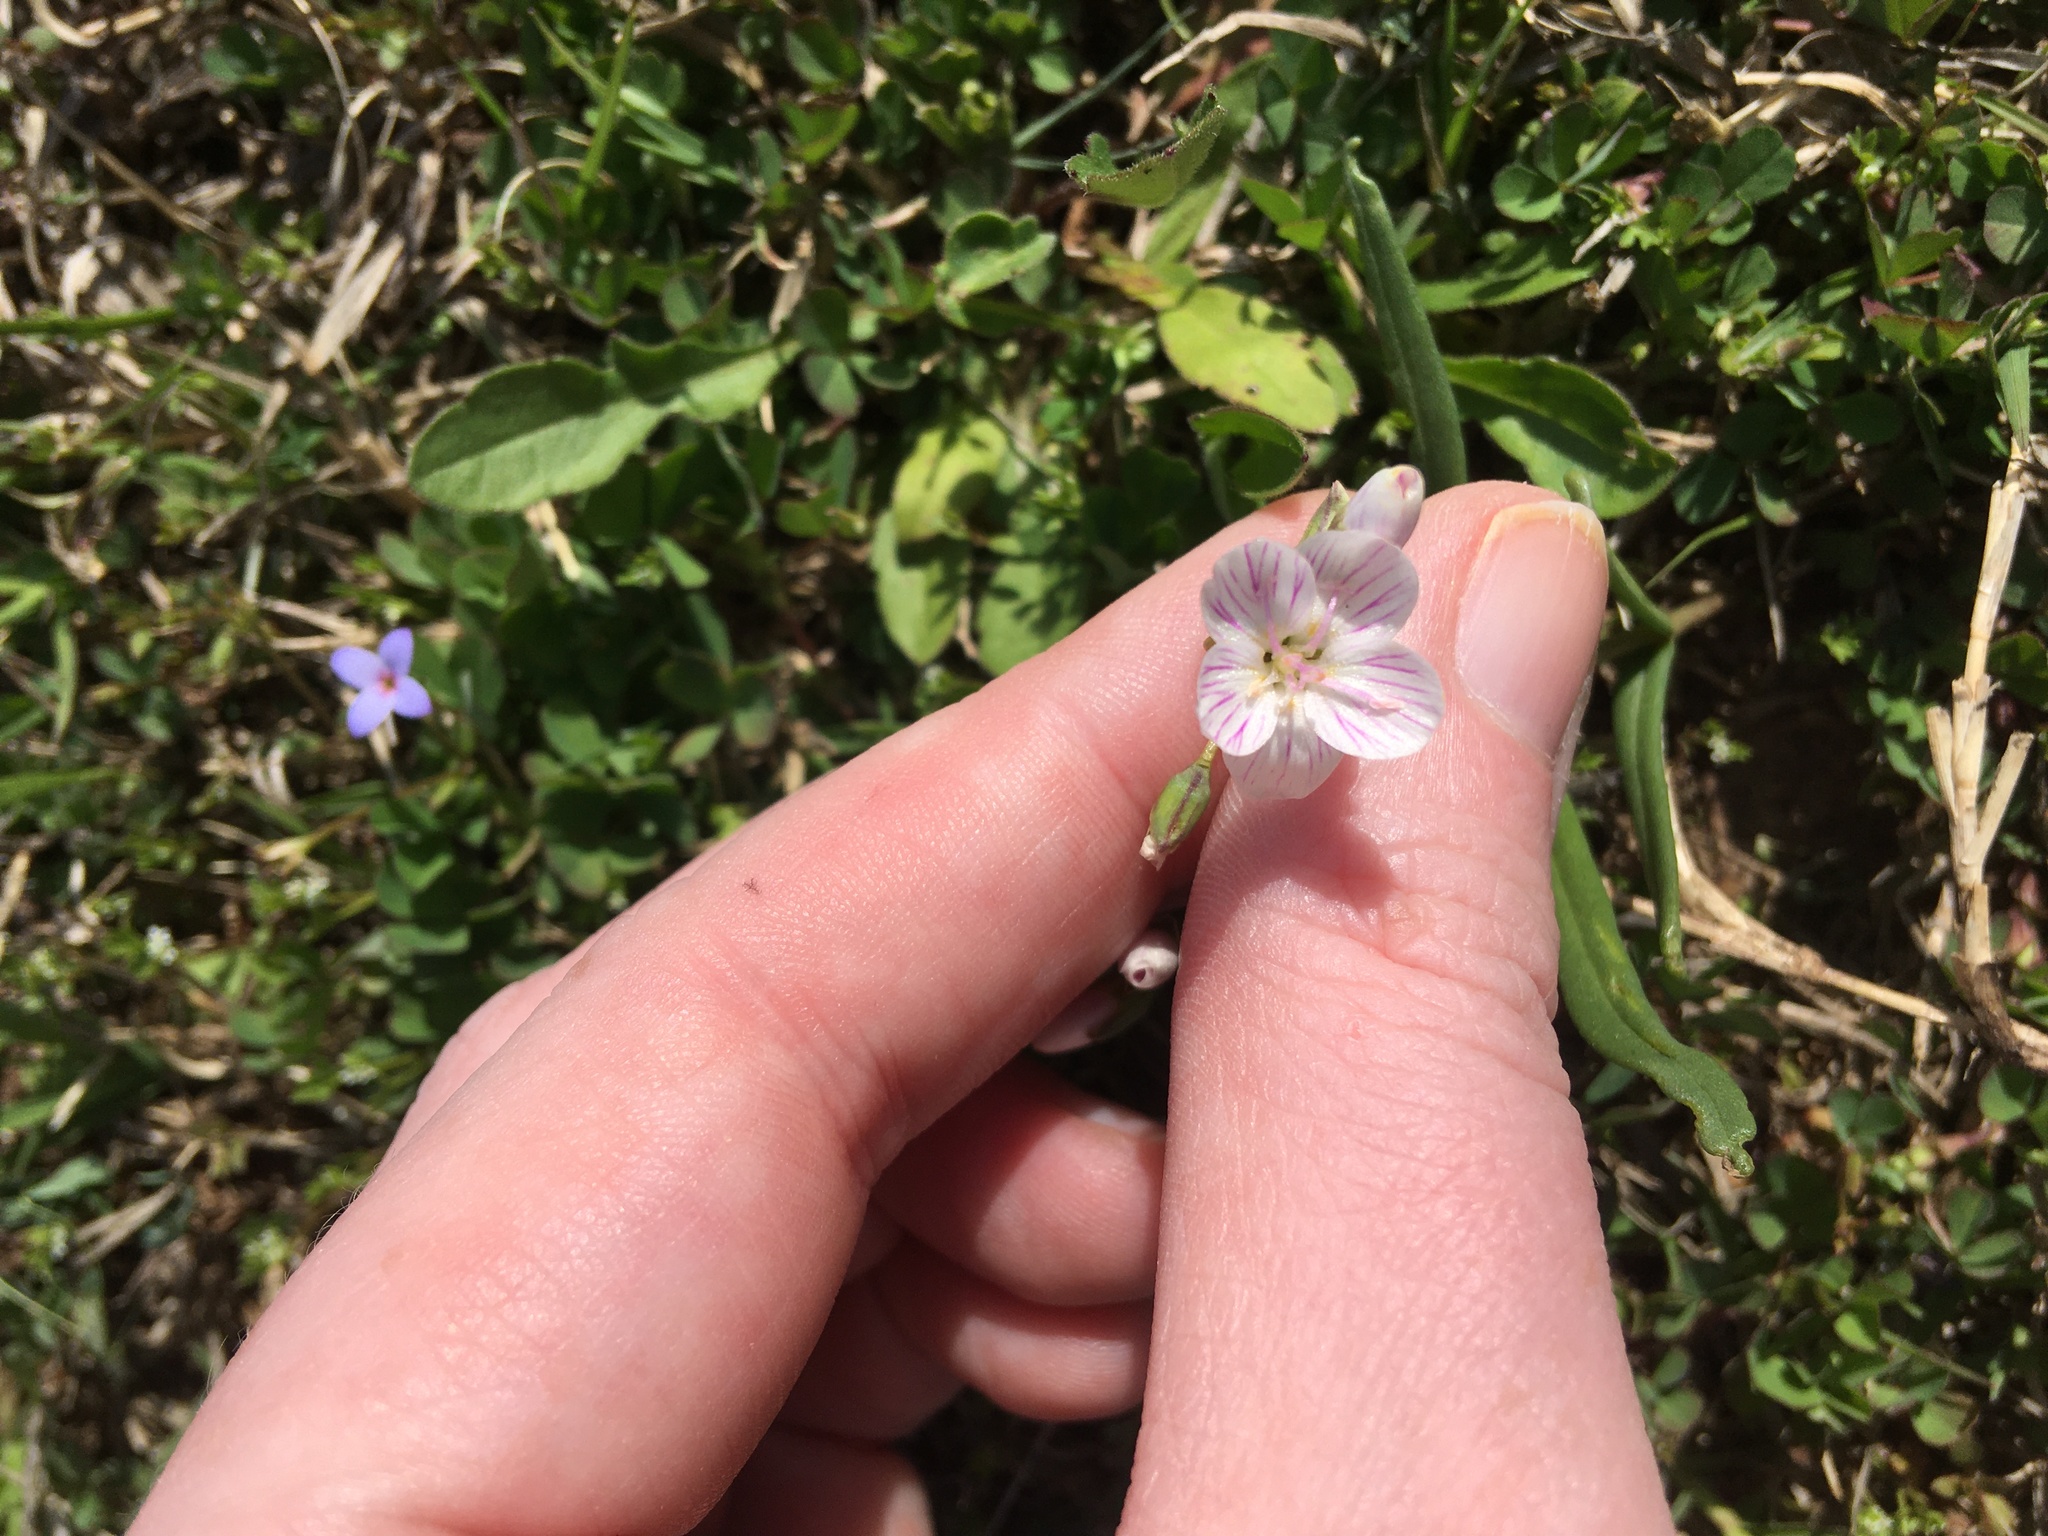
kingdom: Plantae
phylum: Tracheophyta
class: Magnoliopsida
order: Caryophyllales
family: Montiaceae
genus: Claytonia
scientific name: Claytonia virginica
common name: Virginia springbeauty
